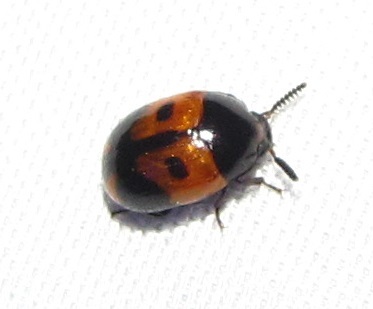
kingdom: Animalia
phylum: Arthropoda
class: Insecta
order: Coleoptera
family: Tenebrionidae
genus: Diaperis
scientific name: Diaperis maculata
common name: Darkling beetle
